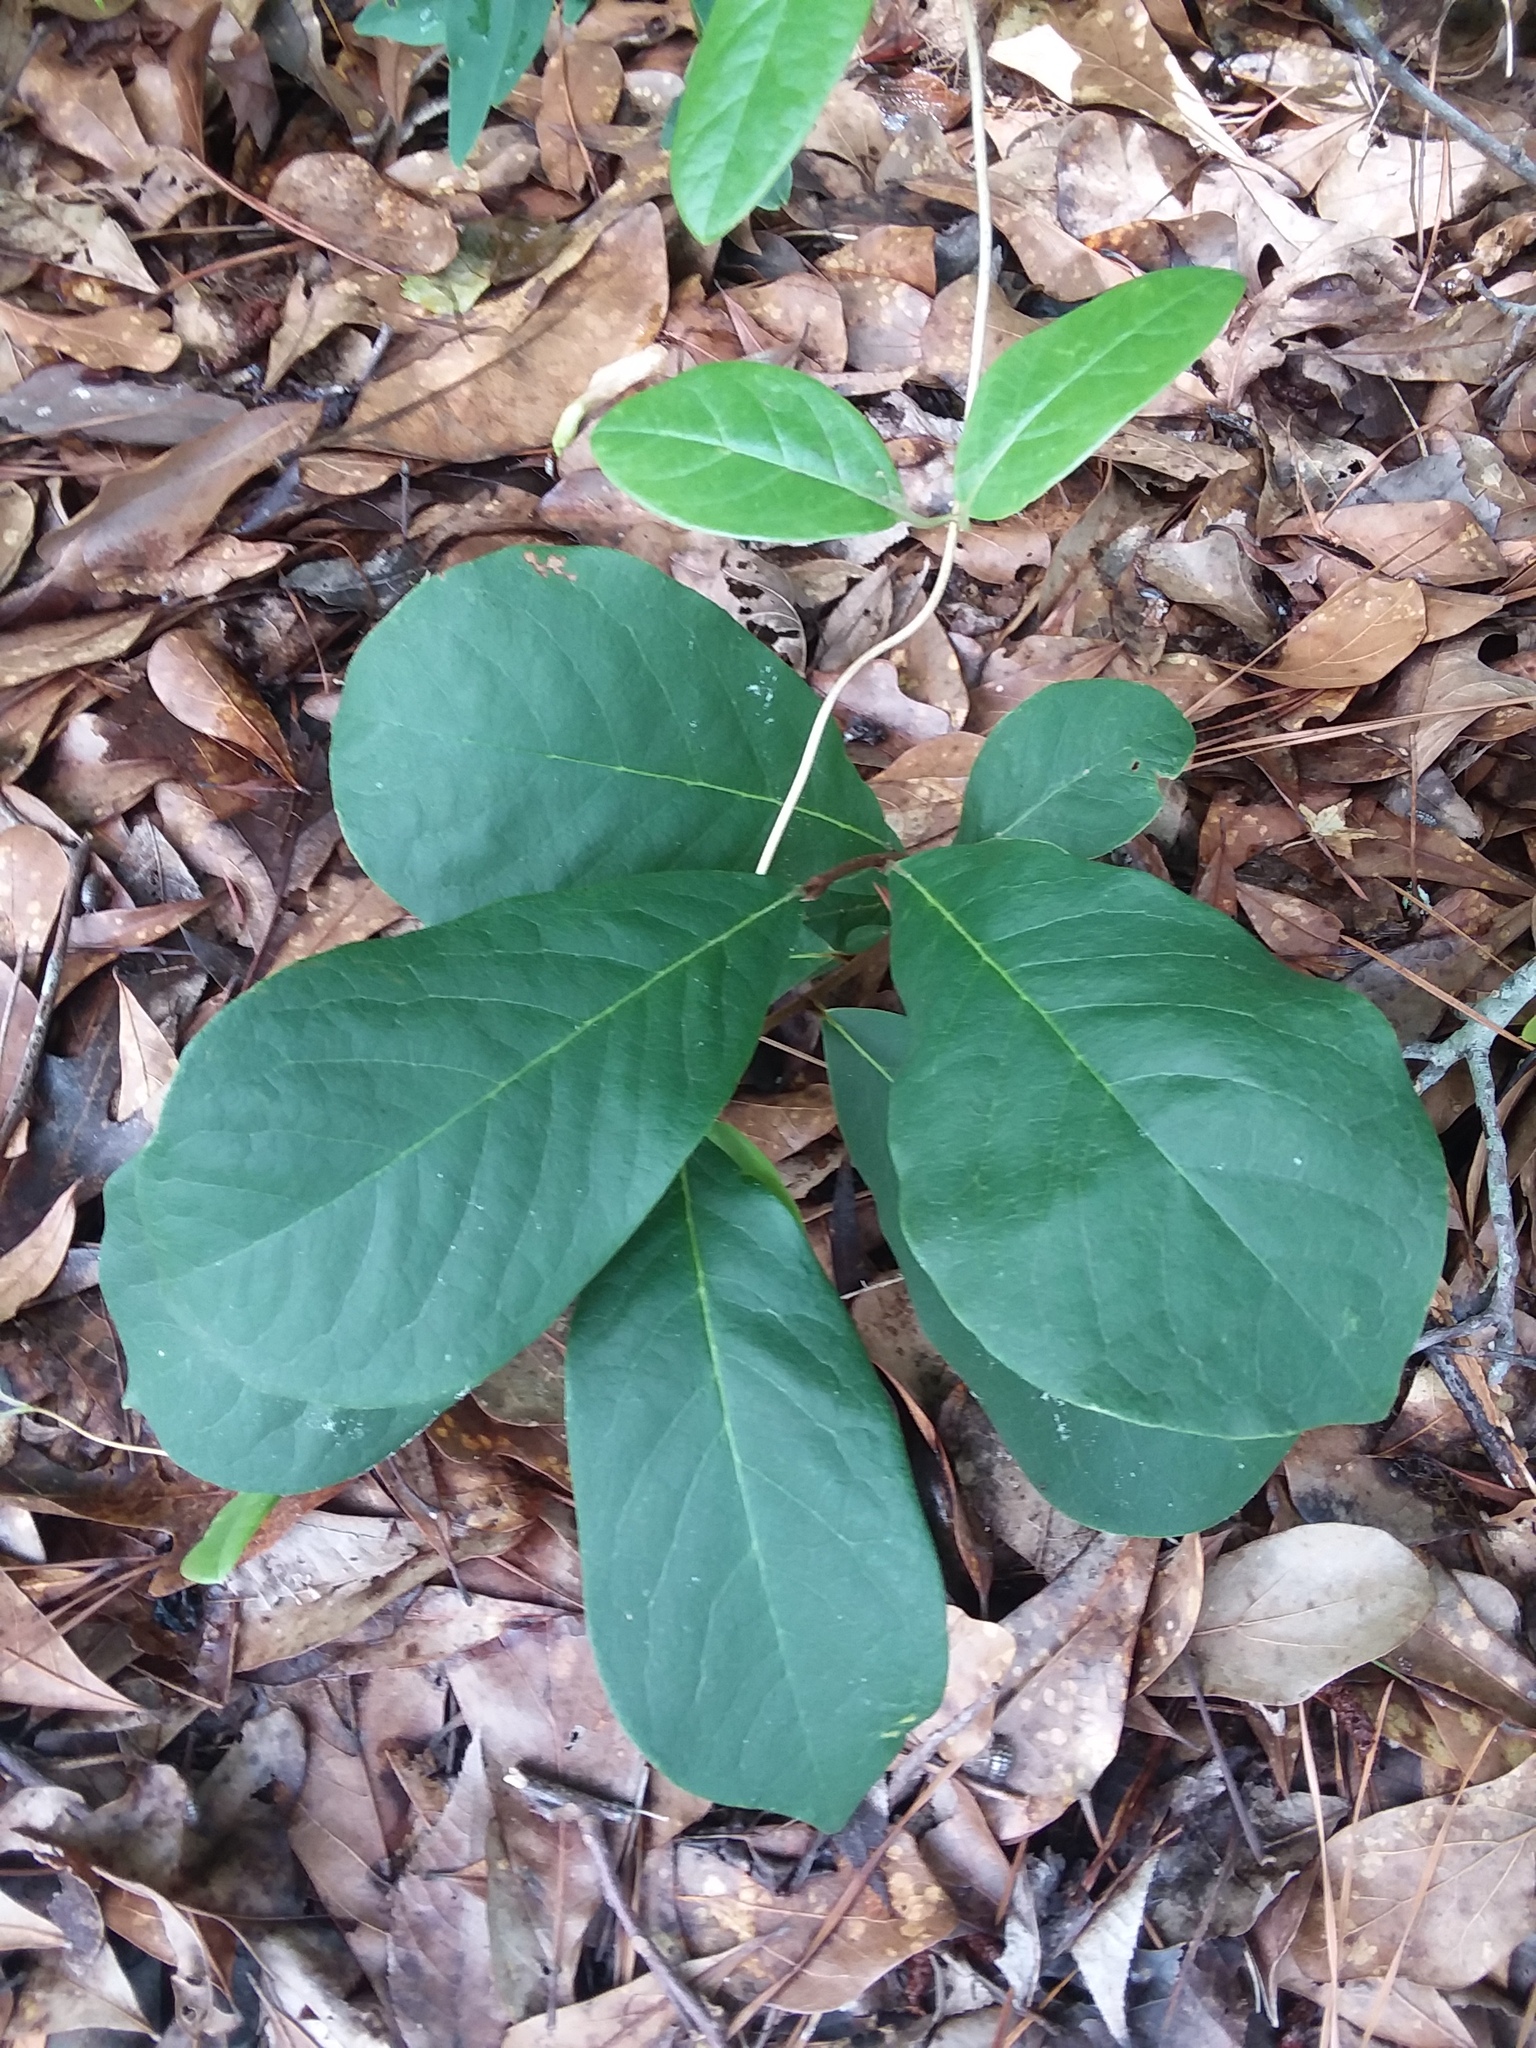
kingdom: Plantae
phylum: Tracheophyta
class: Magnoliopsida
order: Magnoliales
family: Annonaceae
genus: Asimina
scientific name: Asimina parviflora
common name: Dwarf pawpaw
